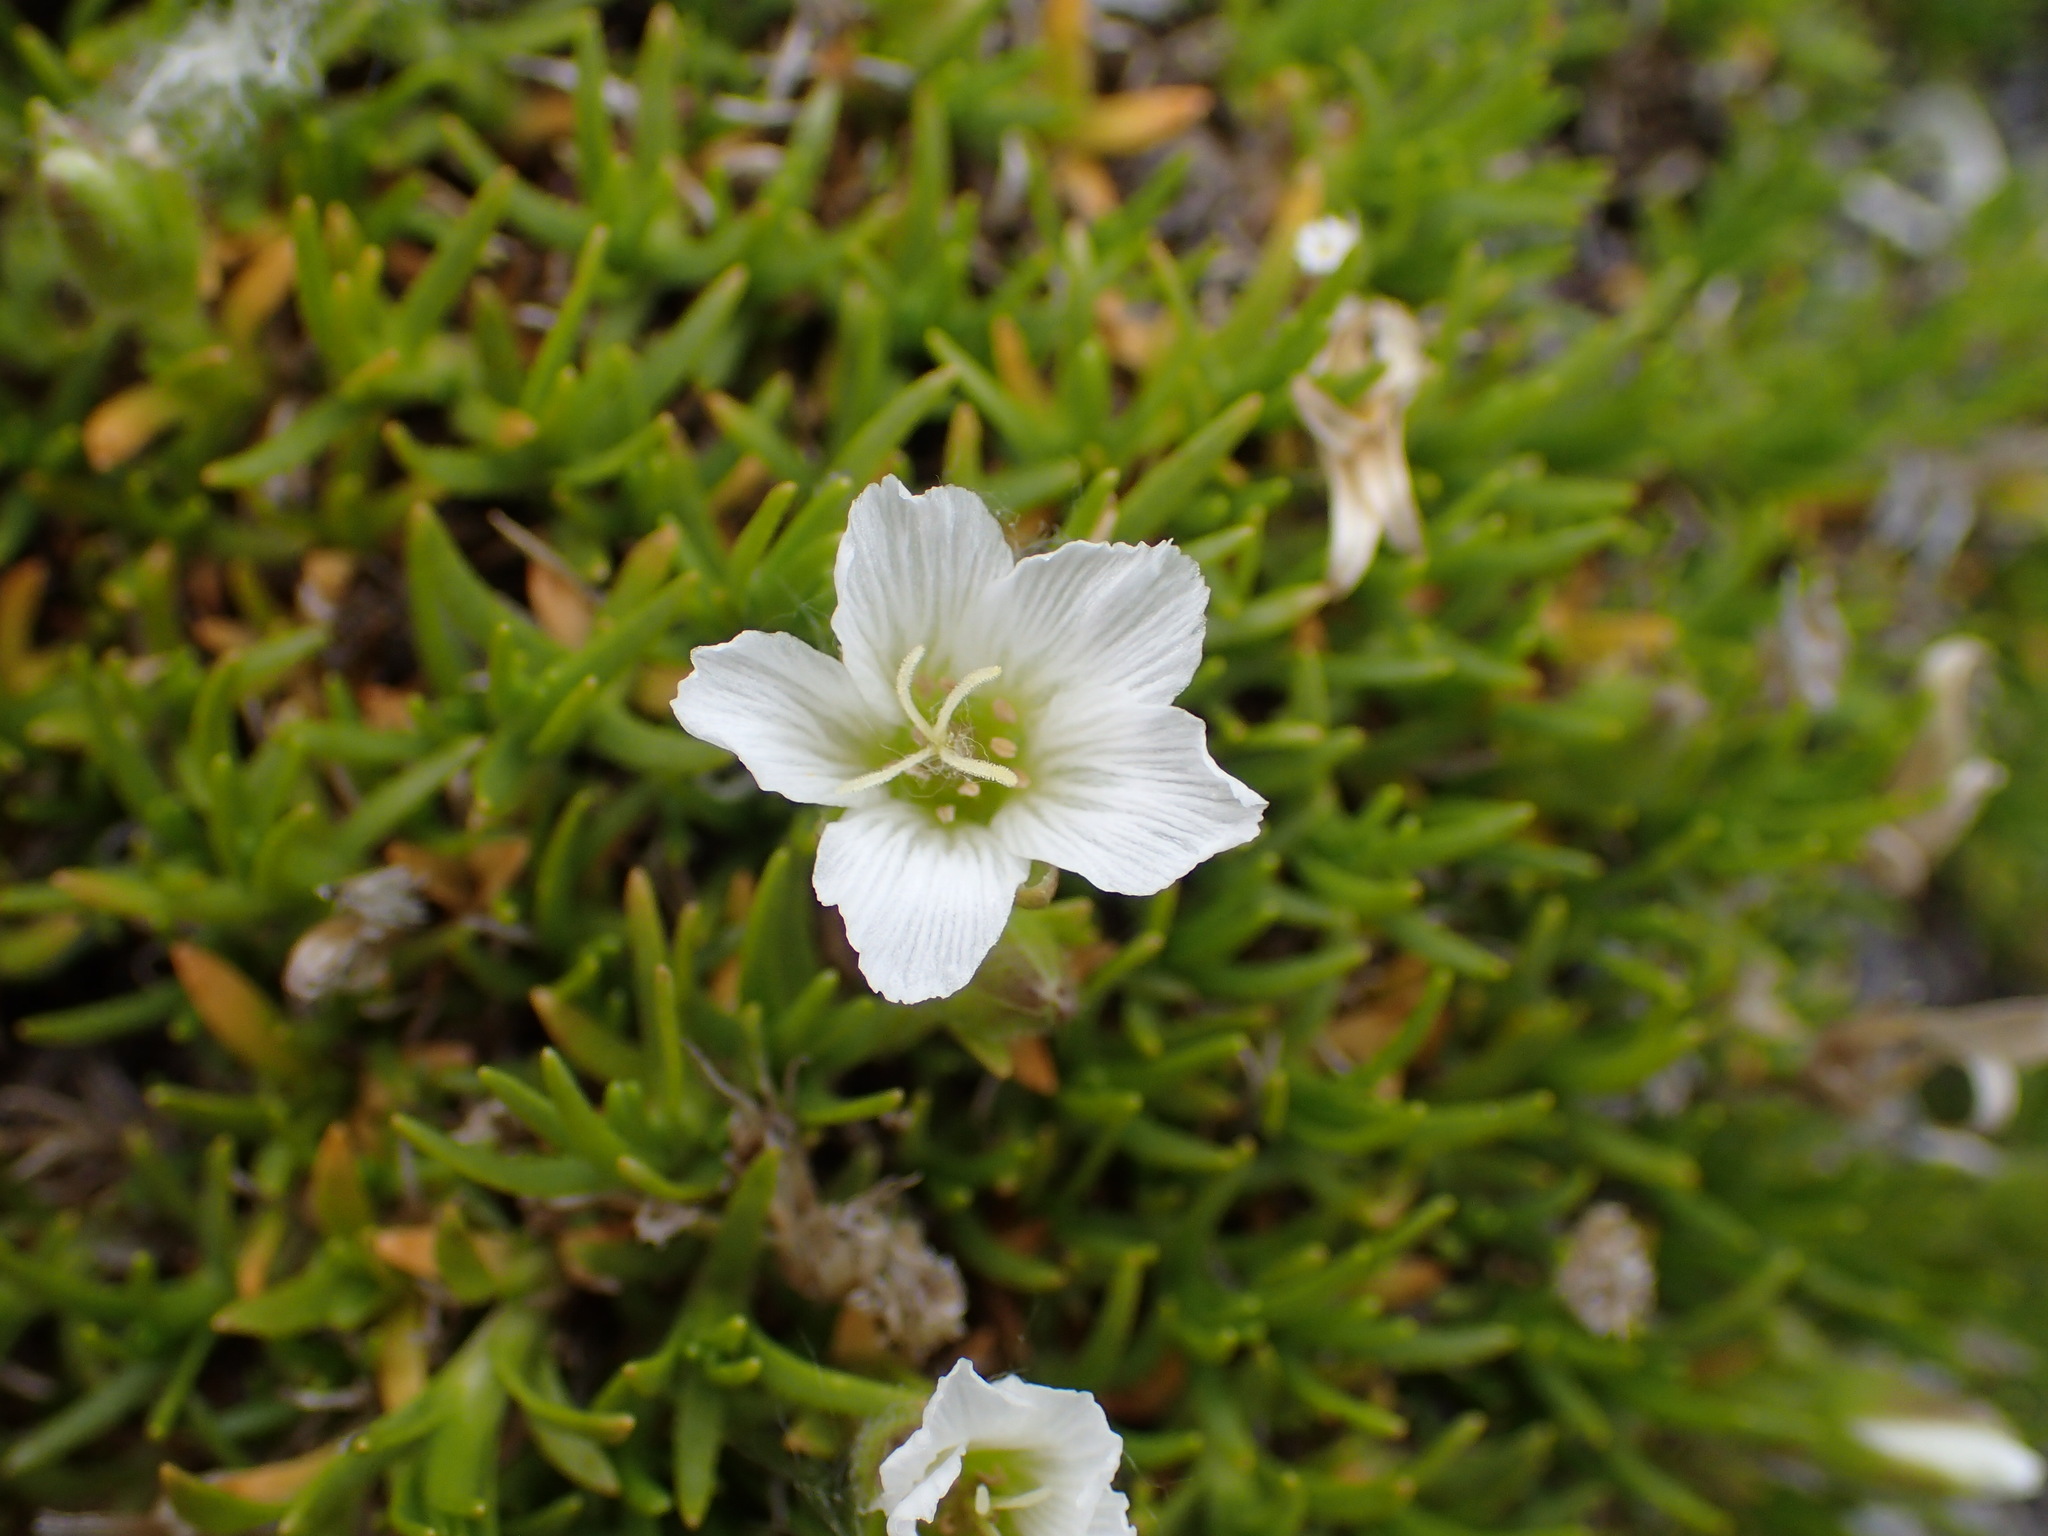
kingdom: Plantae
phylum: Tracheophyta
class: Magnoliopsida
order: Caryophyllales
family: Caryophyllaceae
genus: Cherleria
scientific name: Cherleria arctica
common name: Arctic sandwort
